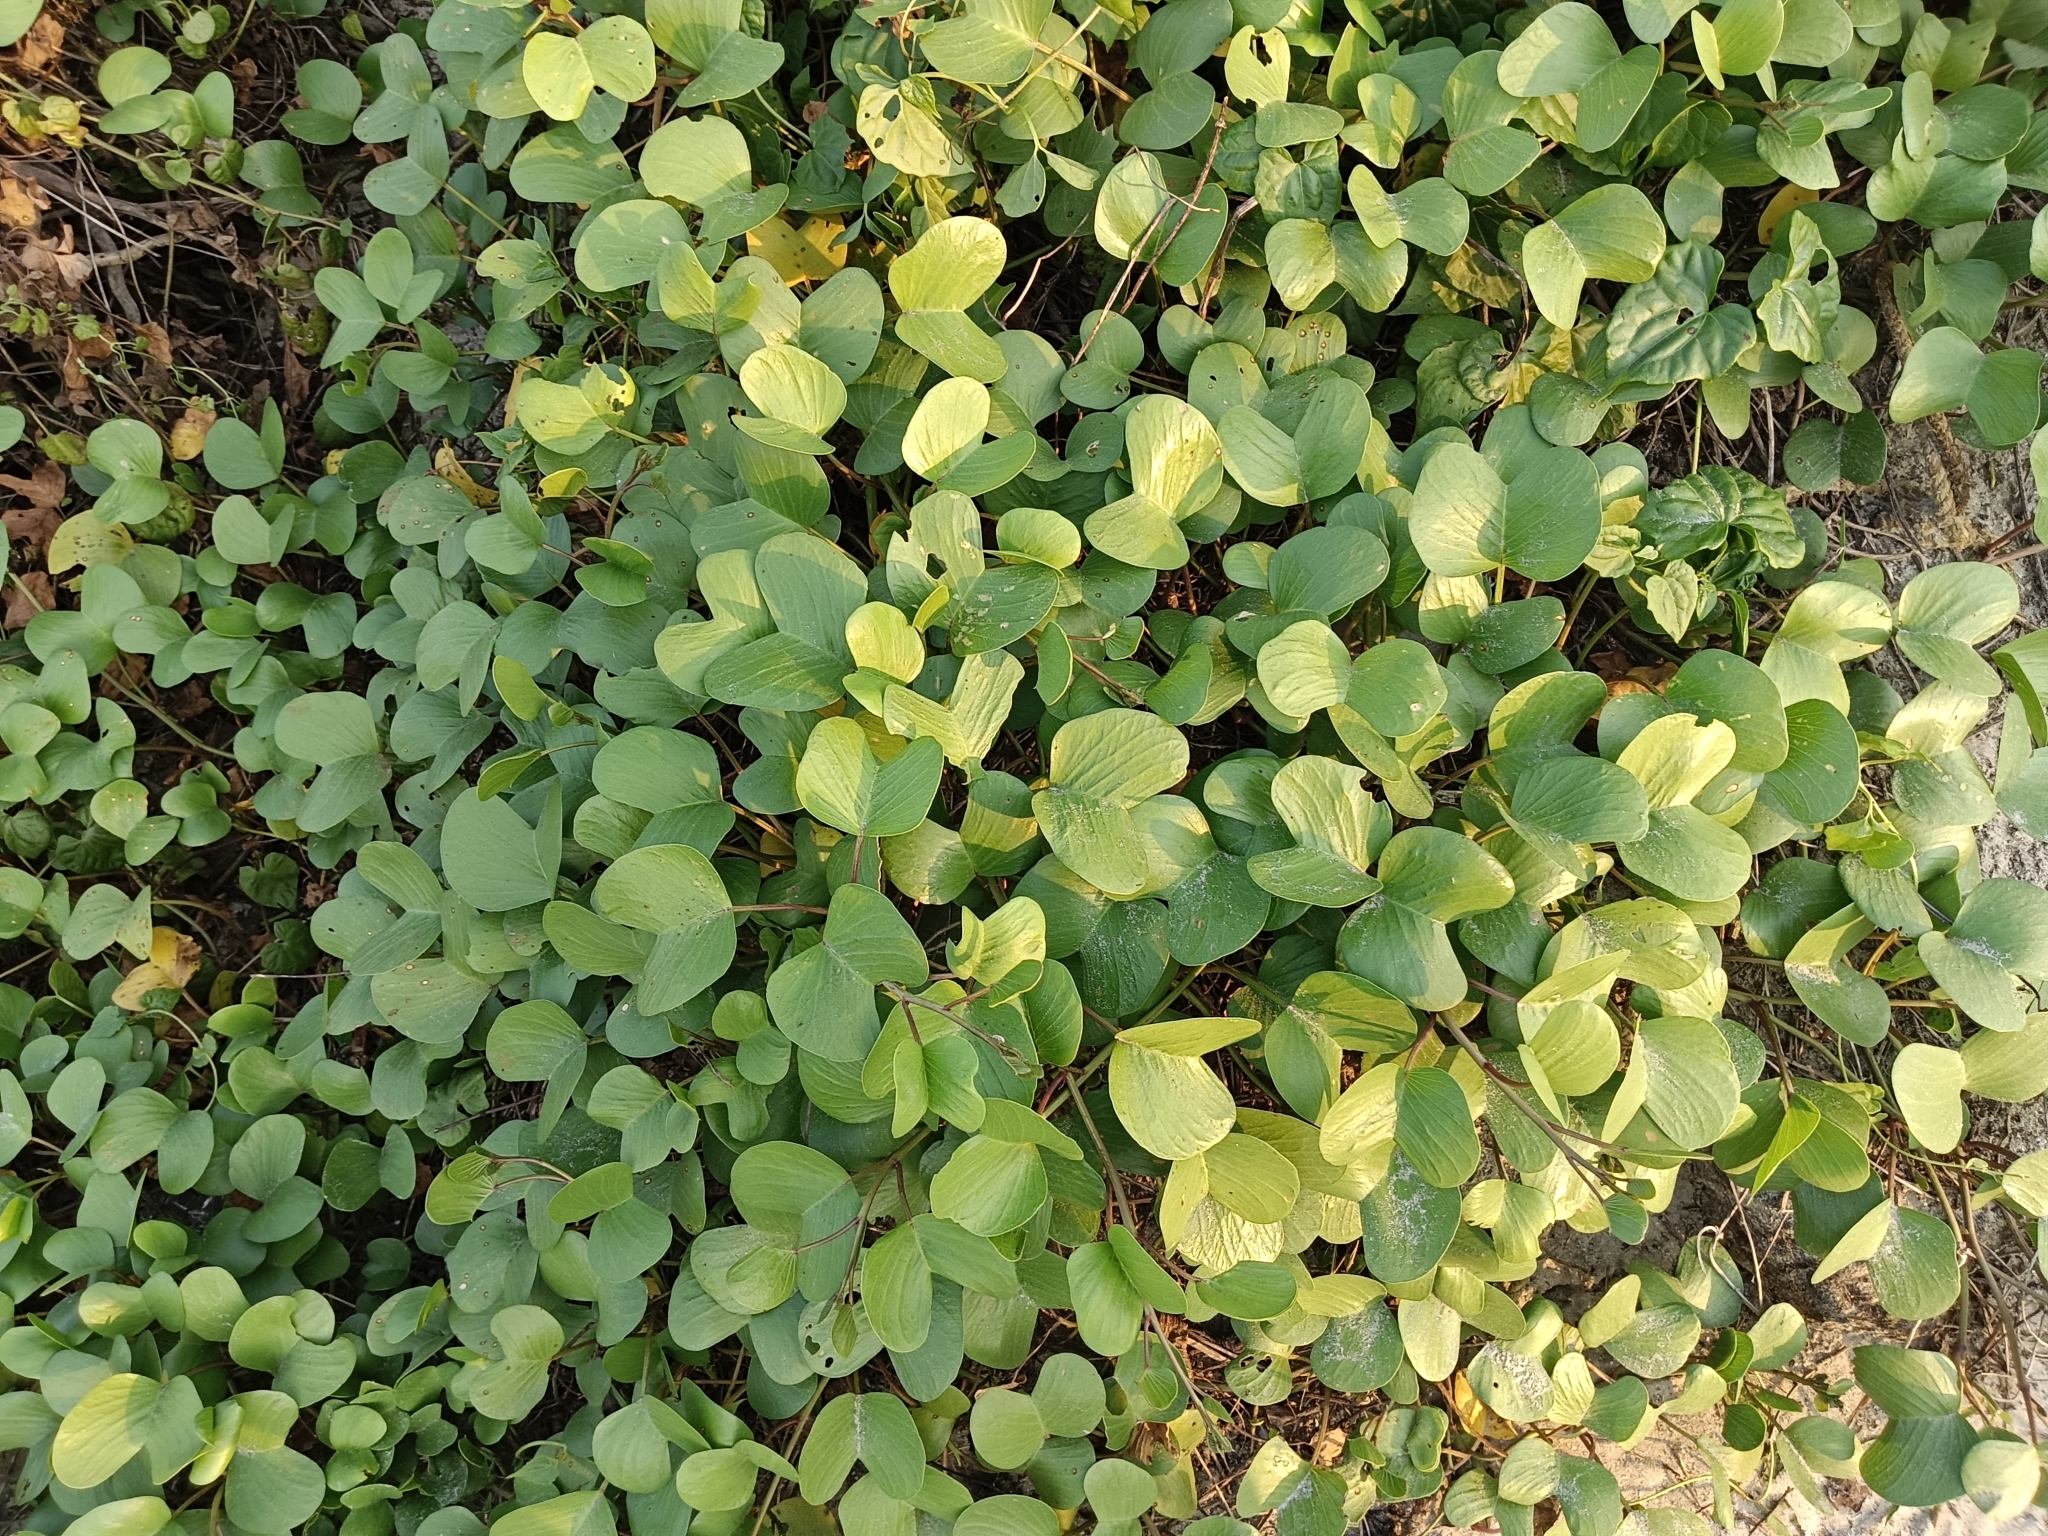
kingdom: Plantae
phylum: Tracheophyta
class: Magnoliopsida
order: Solanales
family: Convolvulaceae
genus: Ipomoea
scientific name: Ipomoea pes-caprae
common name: Beach morning glory
